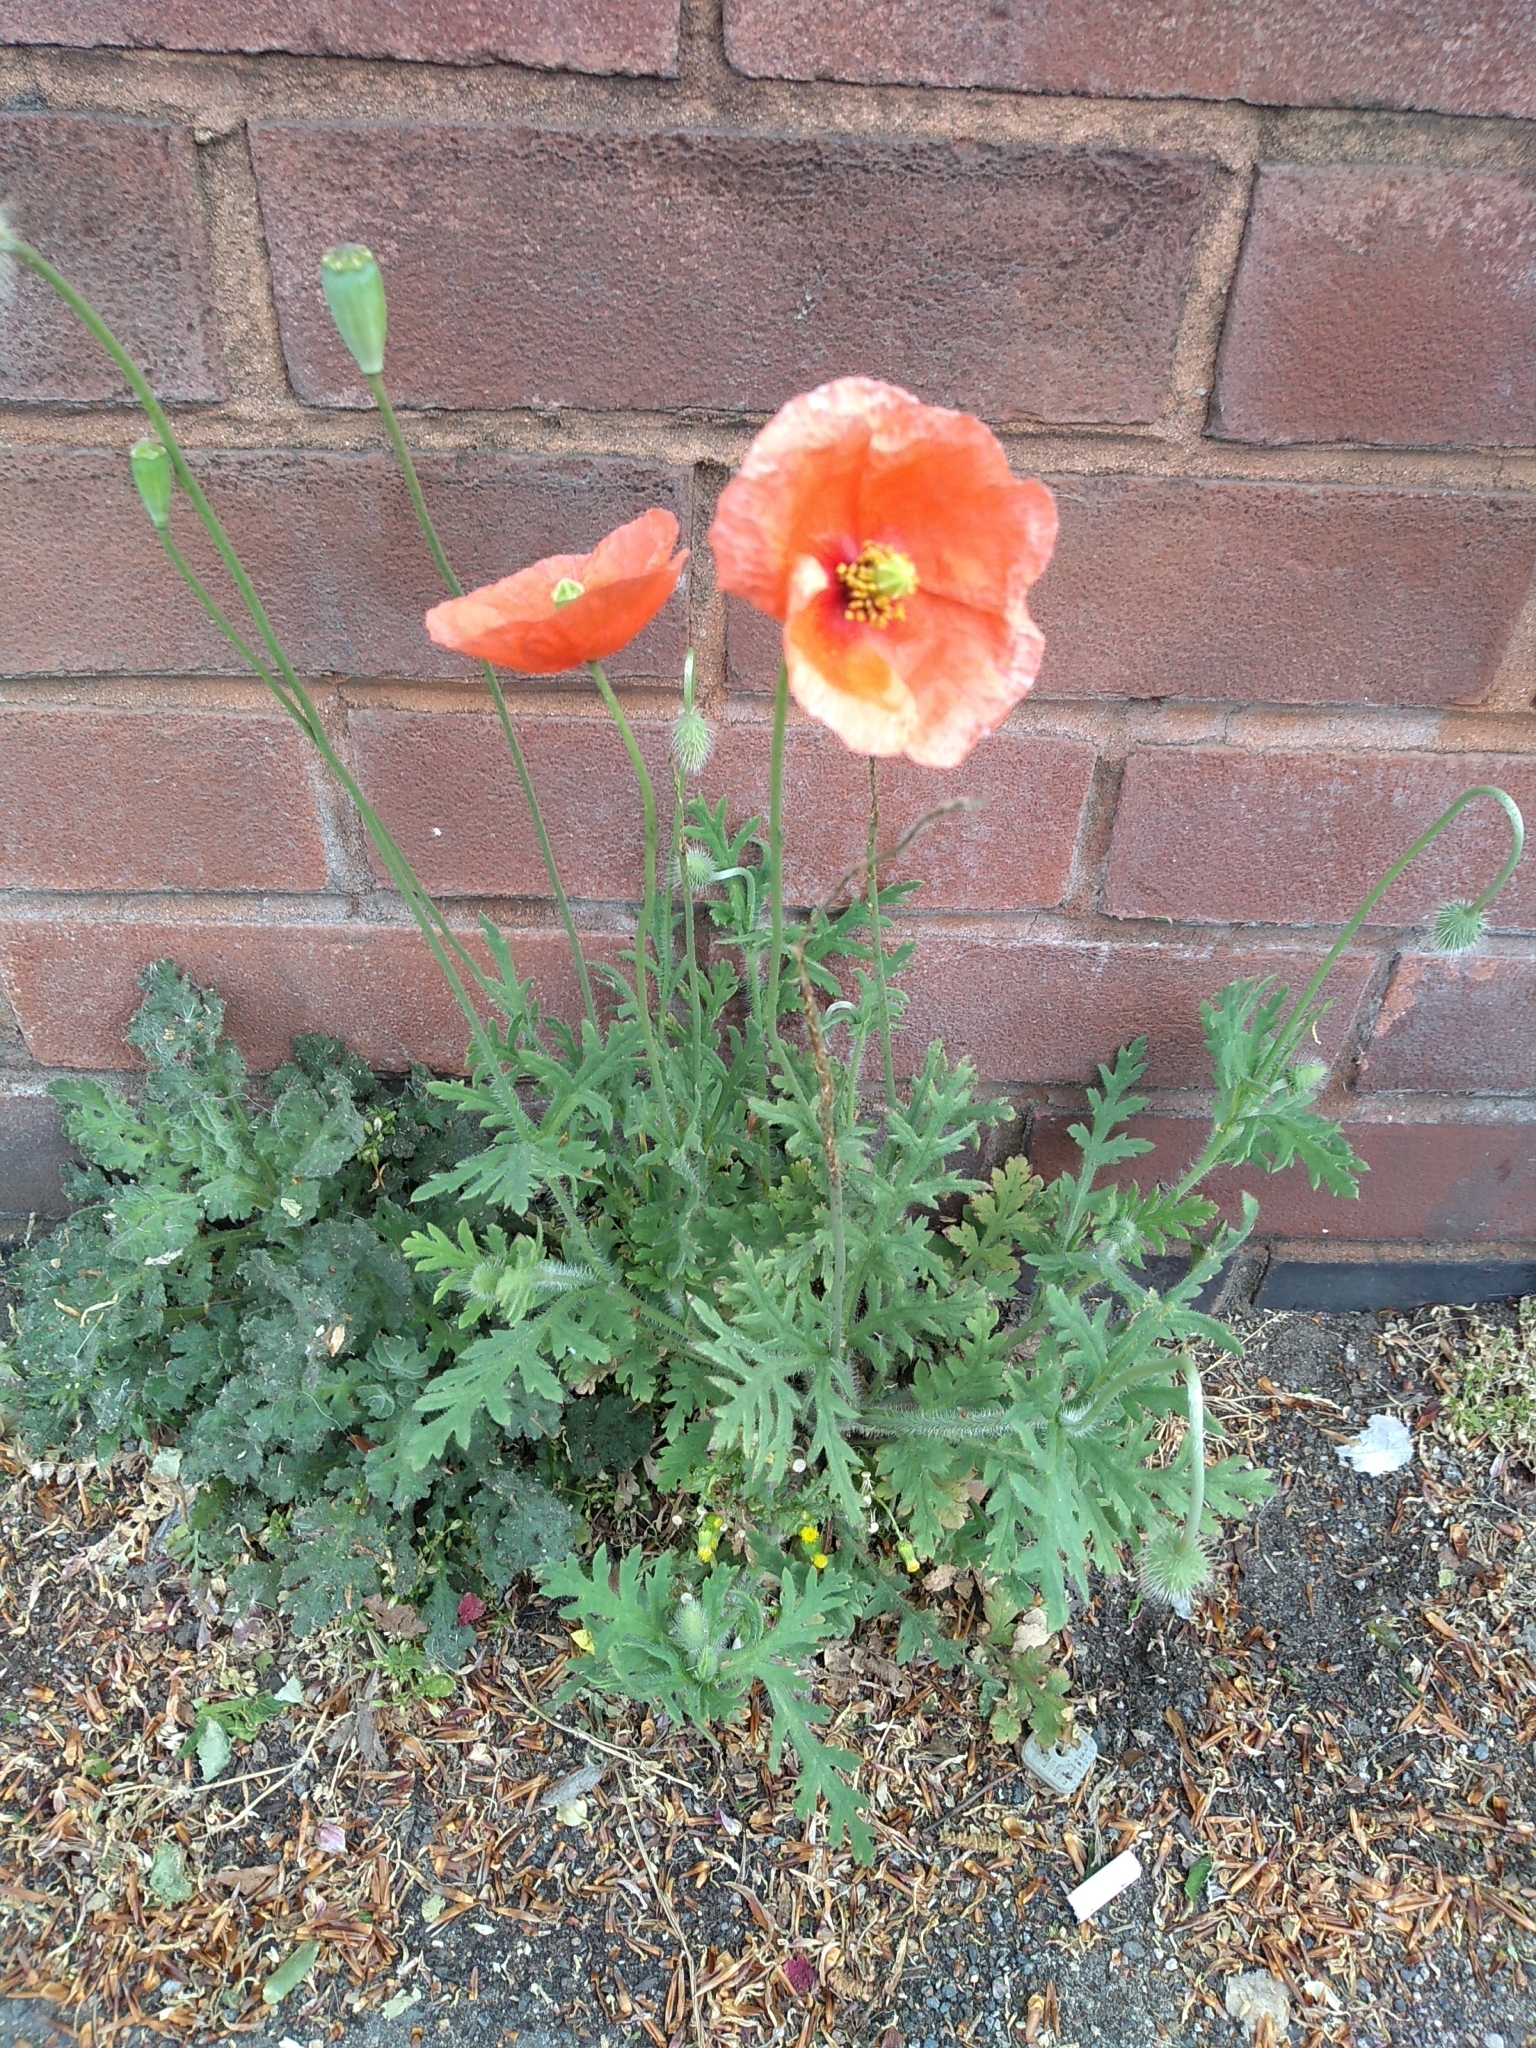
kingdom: Plantae
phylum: Tracheophyta
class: Magnoliopsida
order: Ranunculales
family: Papaveraceae
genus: Papaver
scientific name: Papaver rhoeas
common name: Corn poppy
